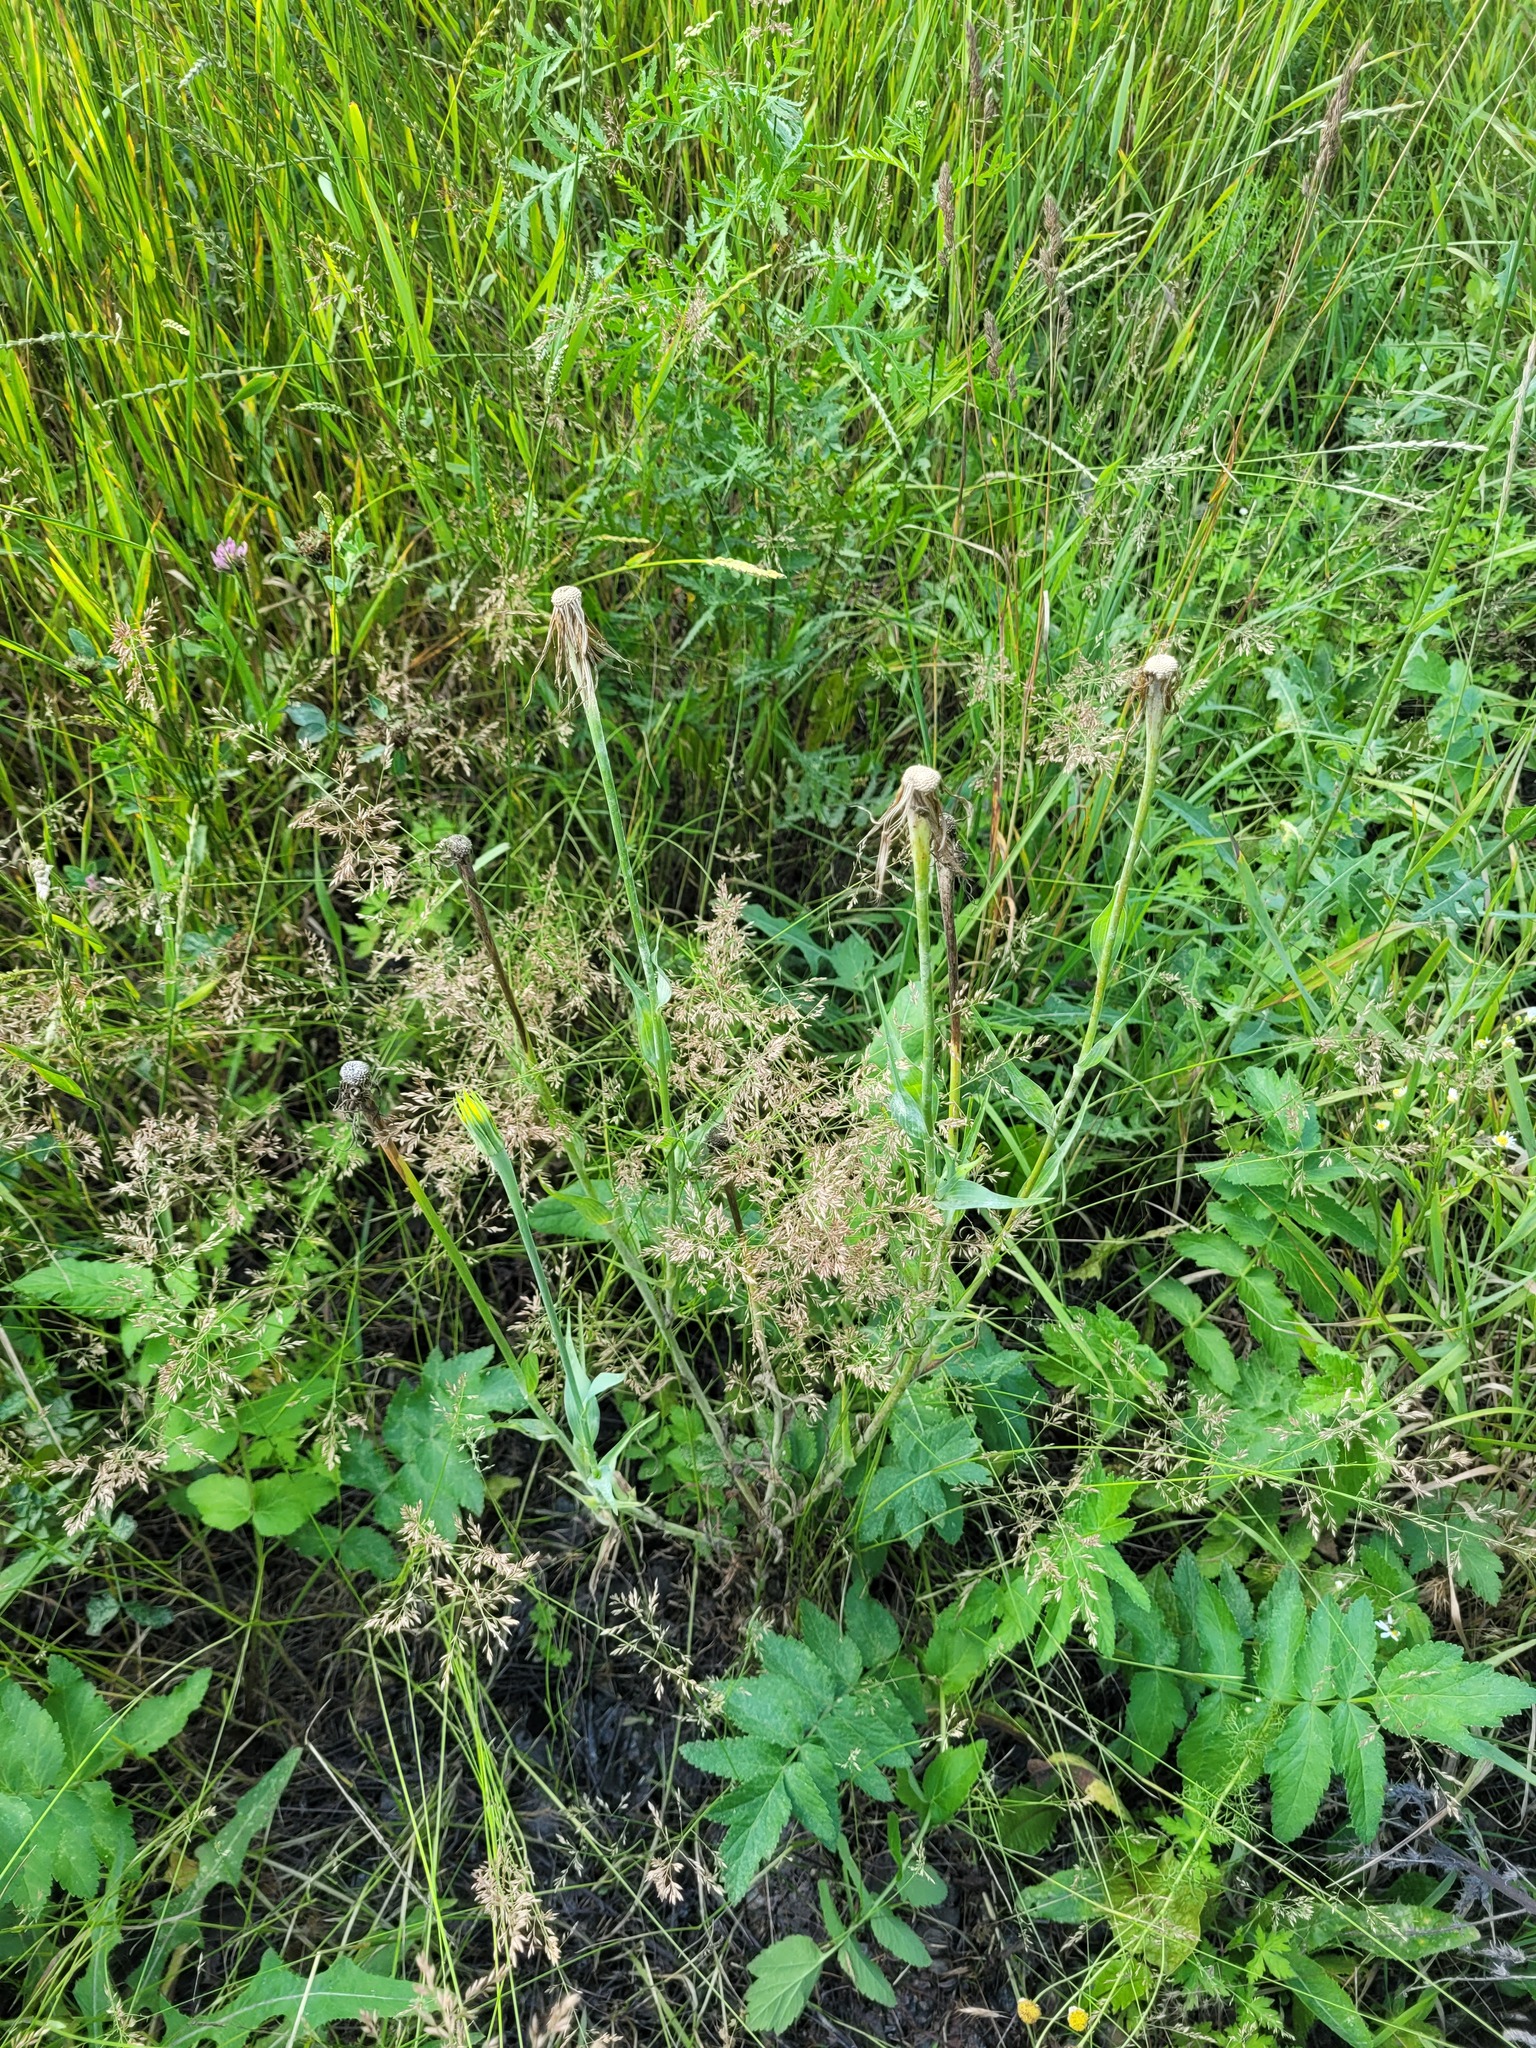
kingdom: Plantae
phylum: Tracheophyta
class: Magnoliopsida
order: Asterales
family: Asteraceae
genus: Tragopogon
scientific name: Tragopogon dubius
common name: Yellow salsify
